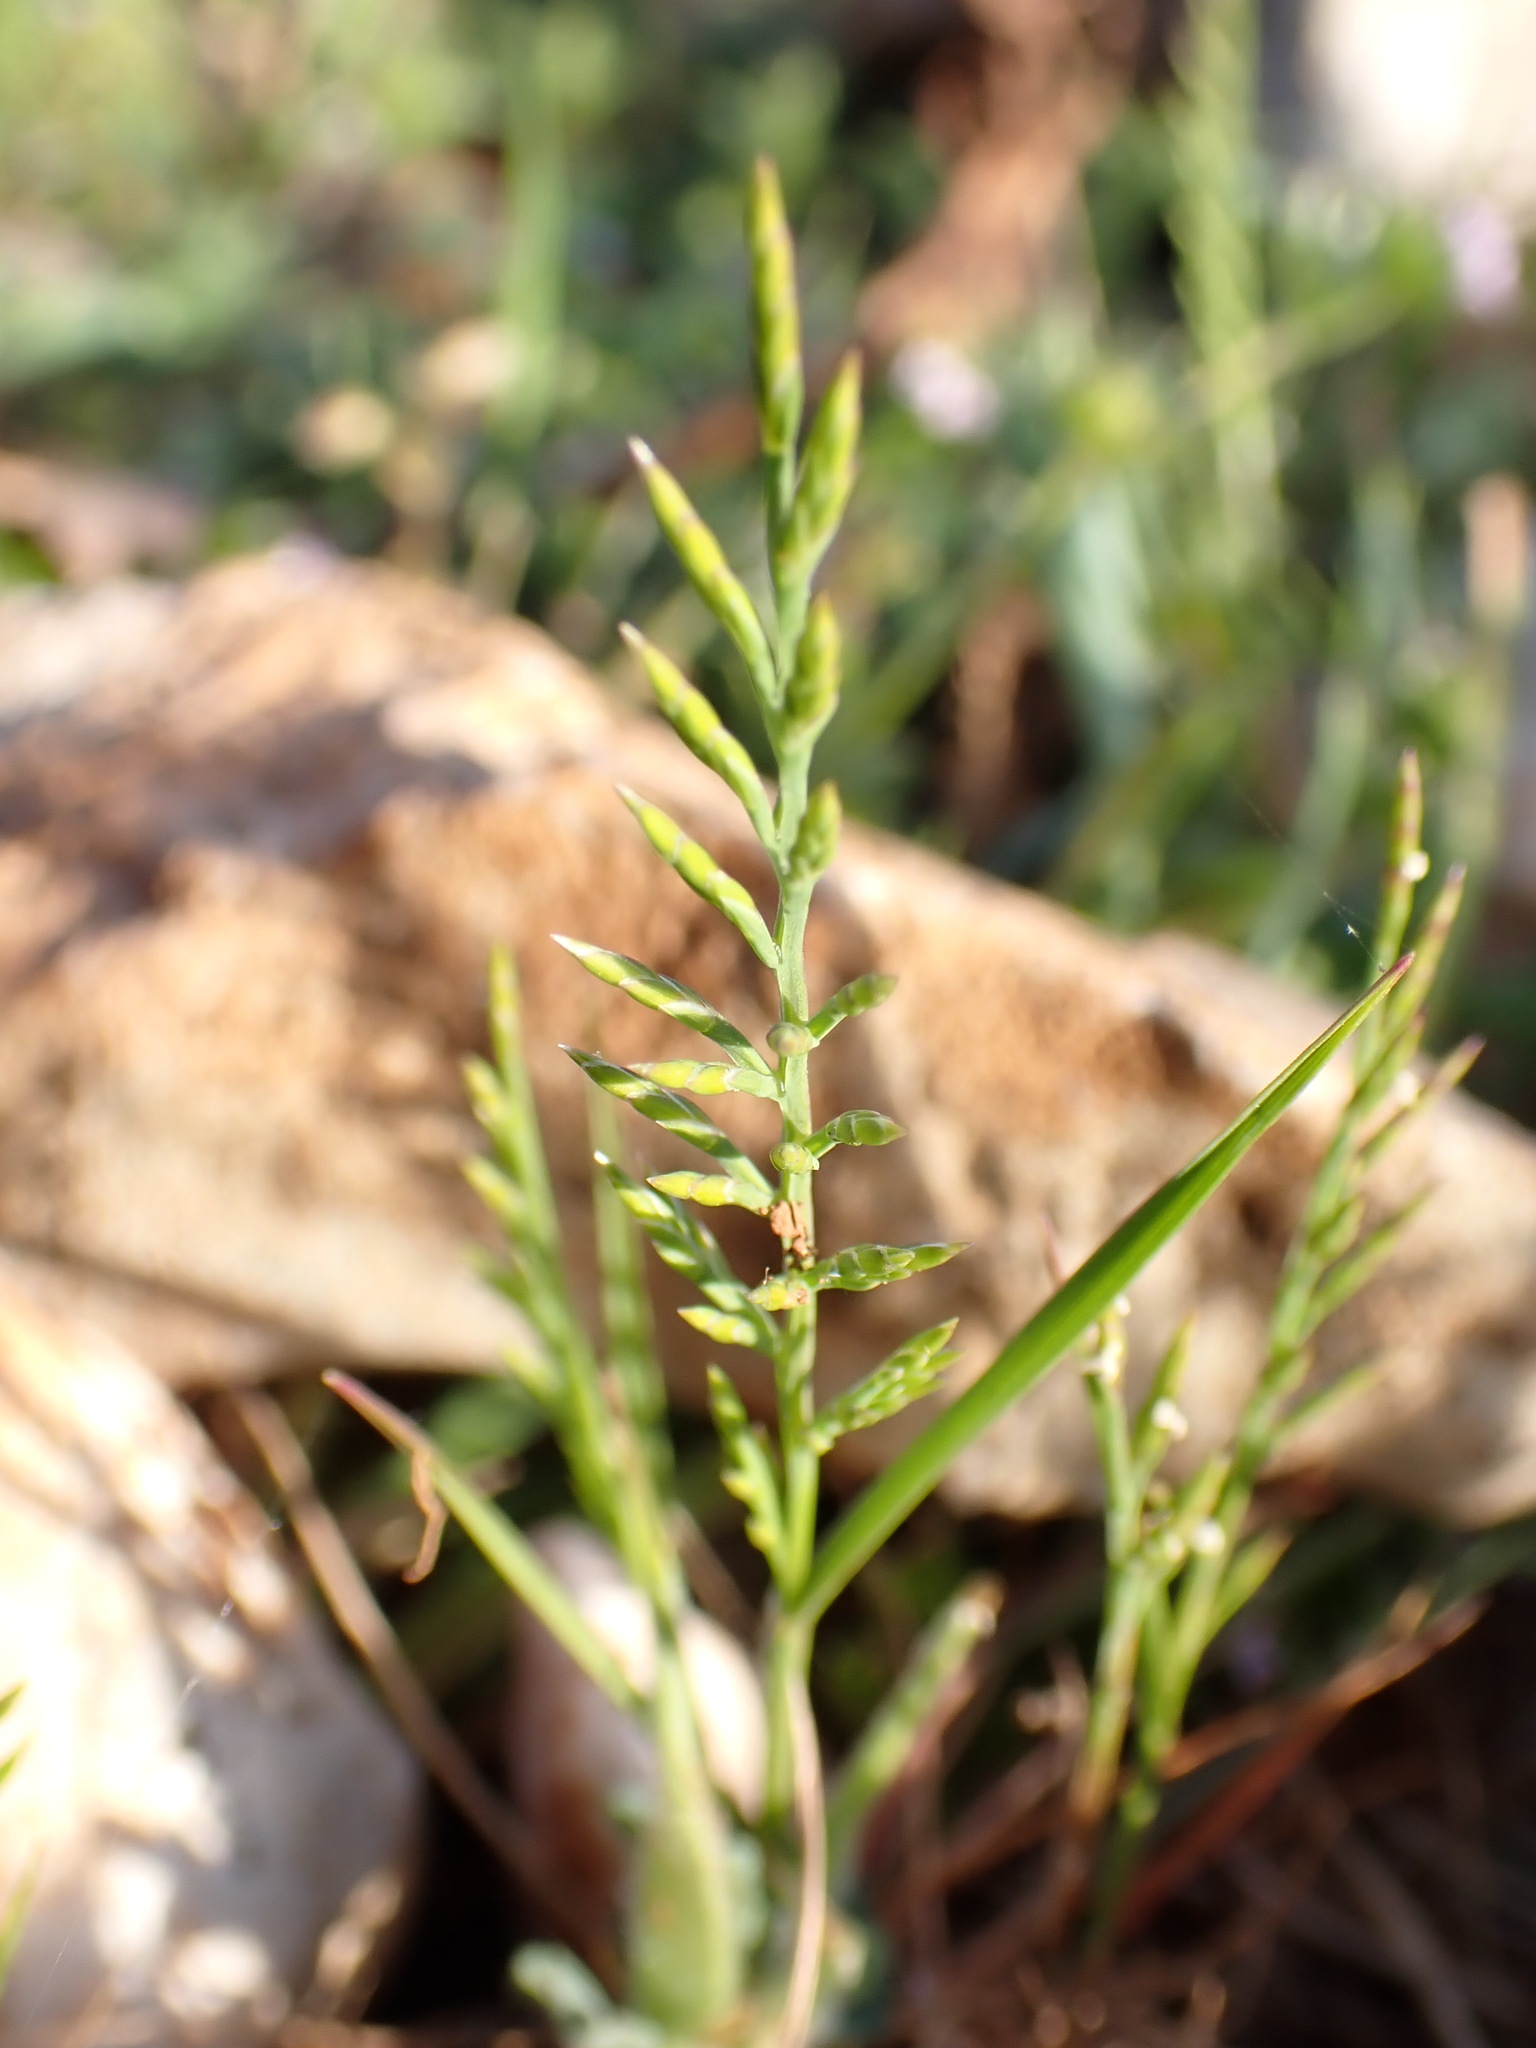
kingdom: Plantae
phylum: Tracheophyta
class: Liliopsida
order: Poales
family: Poaceae
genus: Catapodium
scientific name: Catapodium rigidum
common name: Fern-grass
